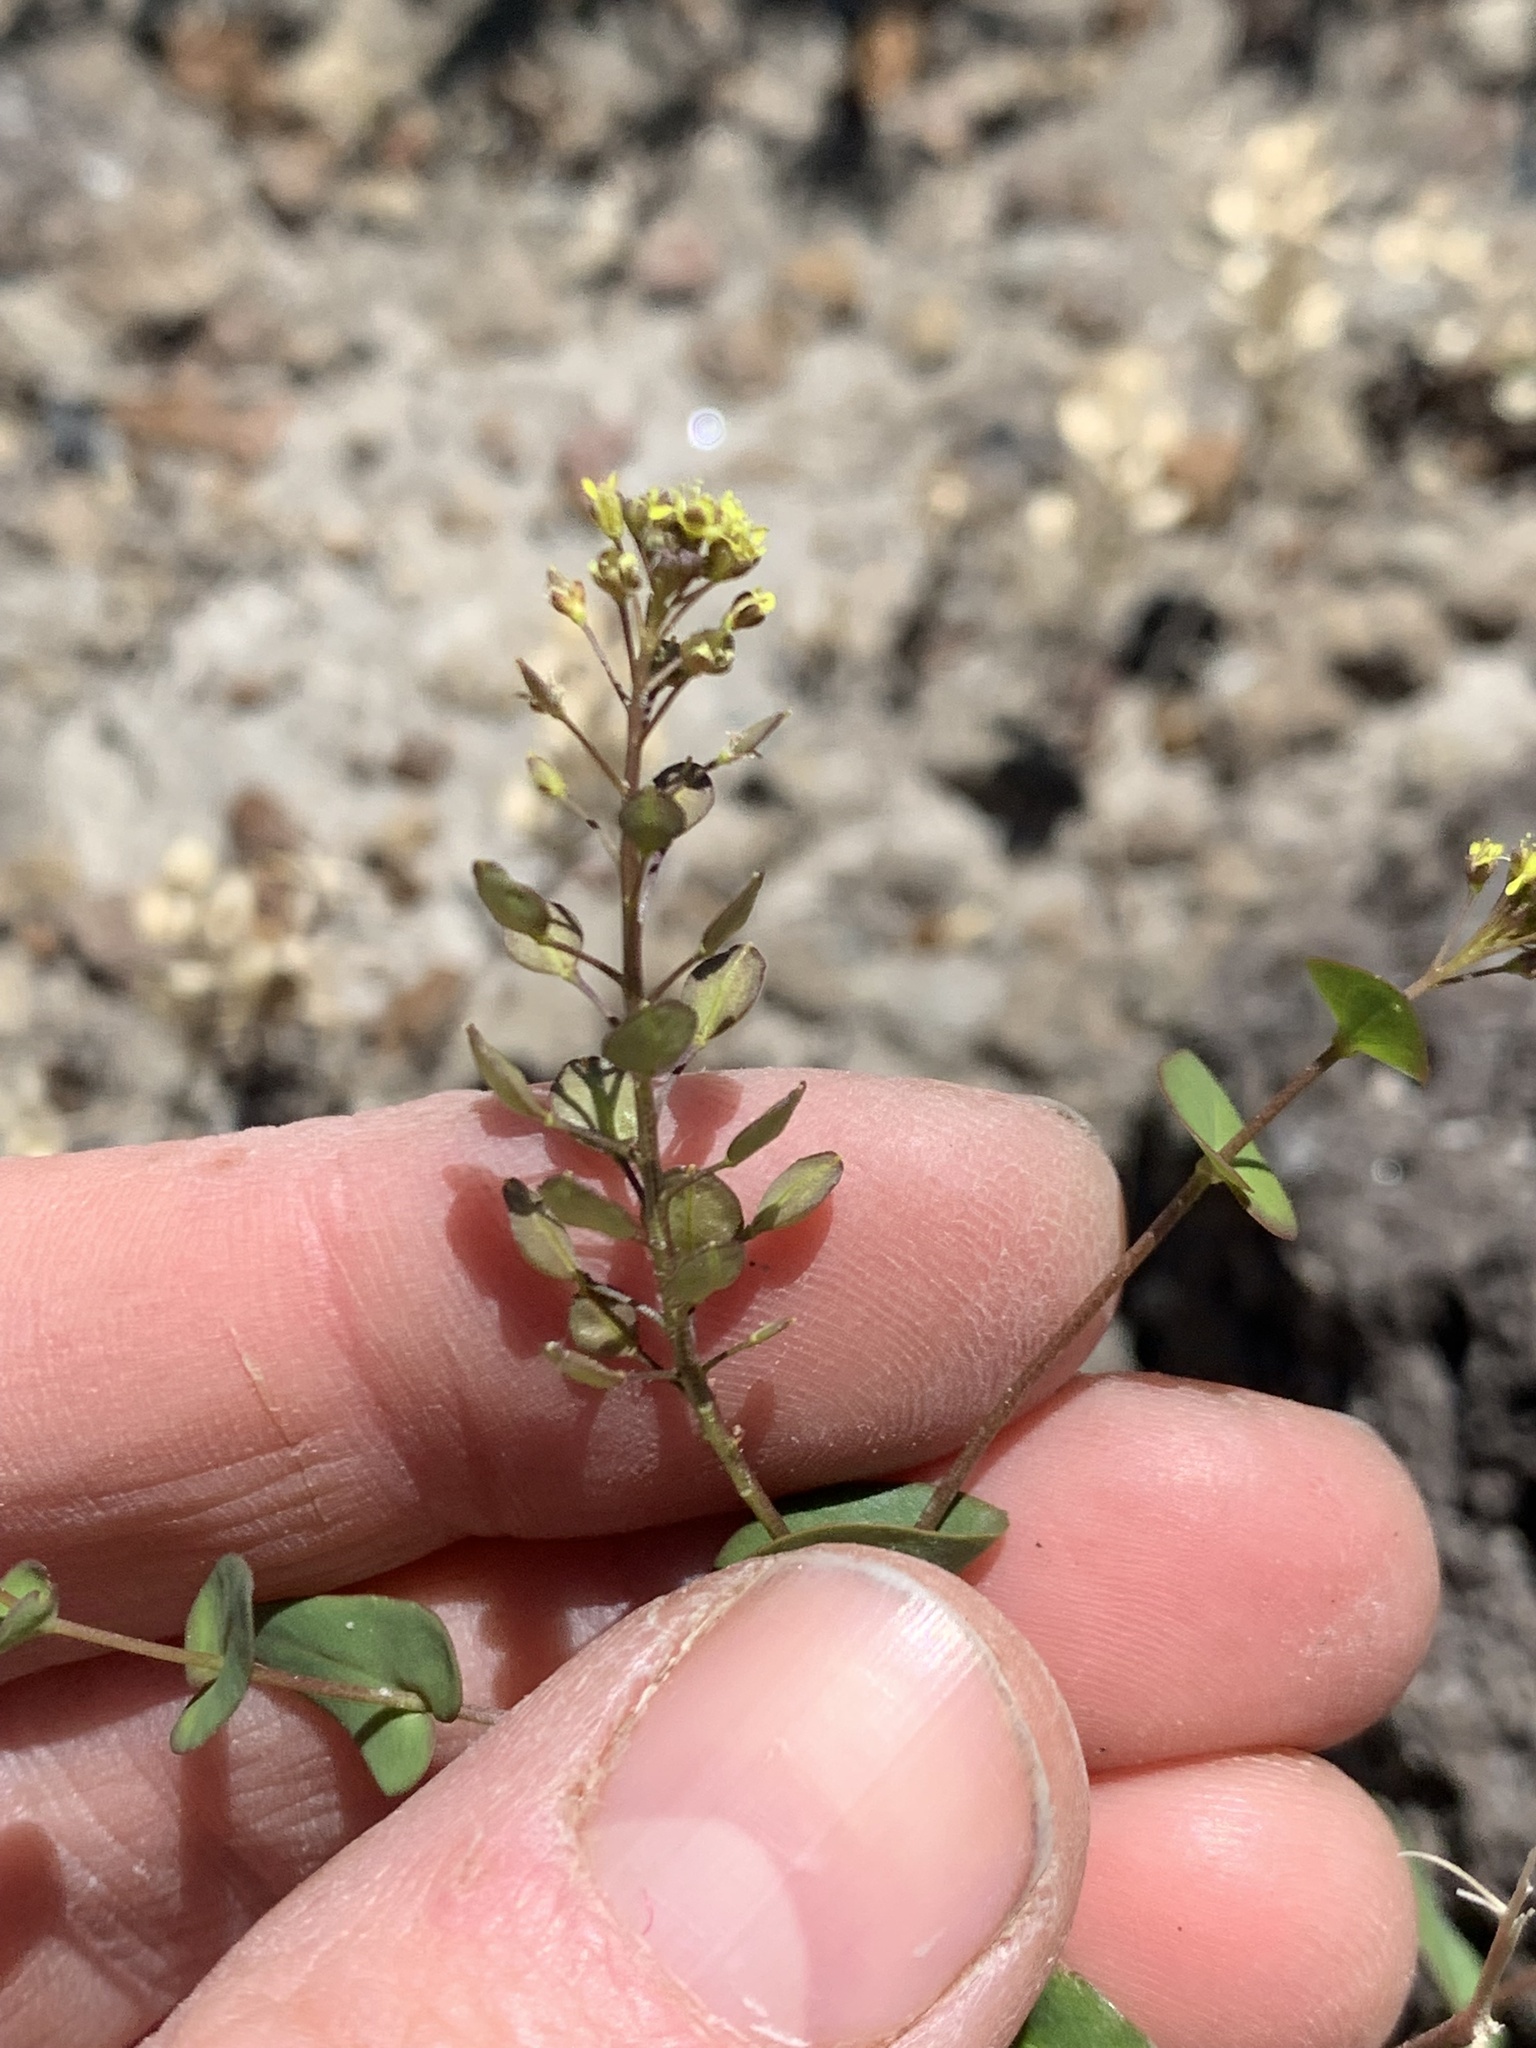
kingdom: Plantae
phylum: Tracheophyta
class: Magnoliopsida
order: Brassicales
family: Brassicaceae
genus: Lepidium
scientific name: Lepidium perfoliatum
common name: Perfoliate pepperwort
